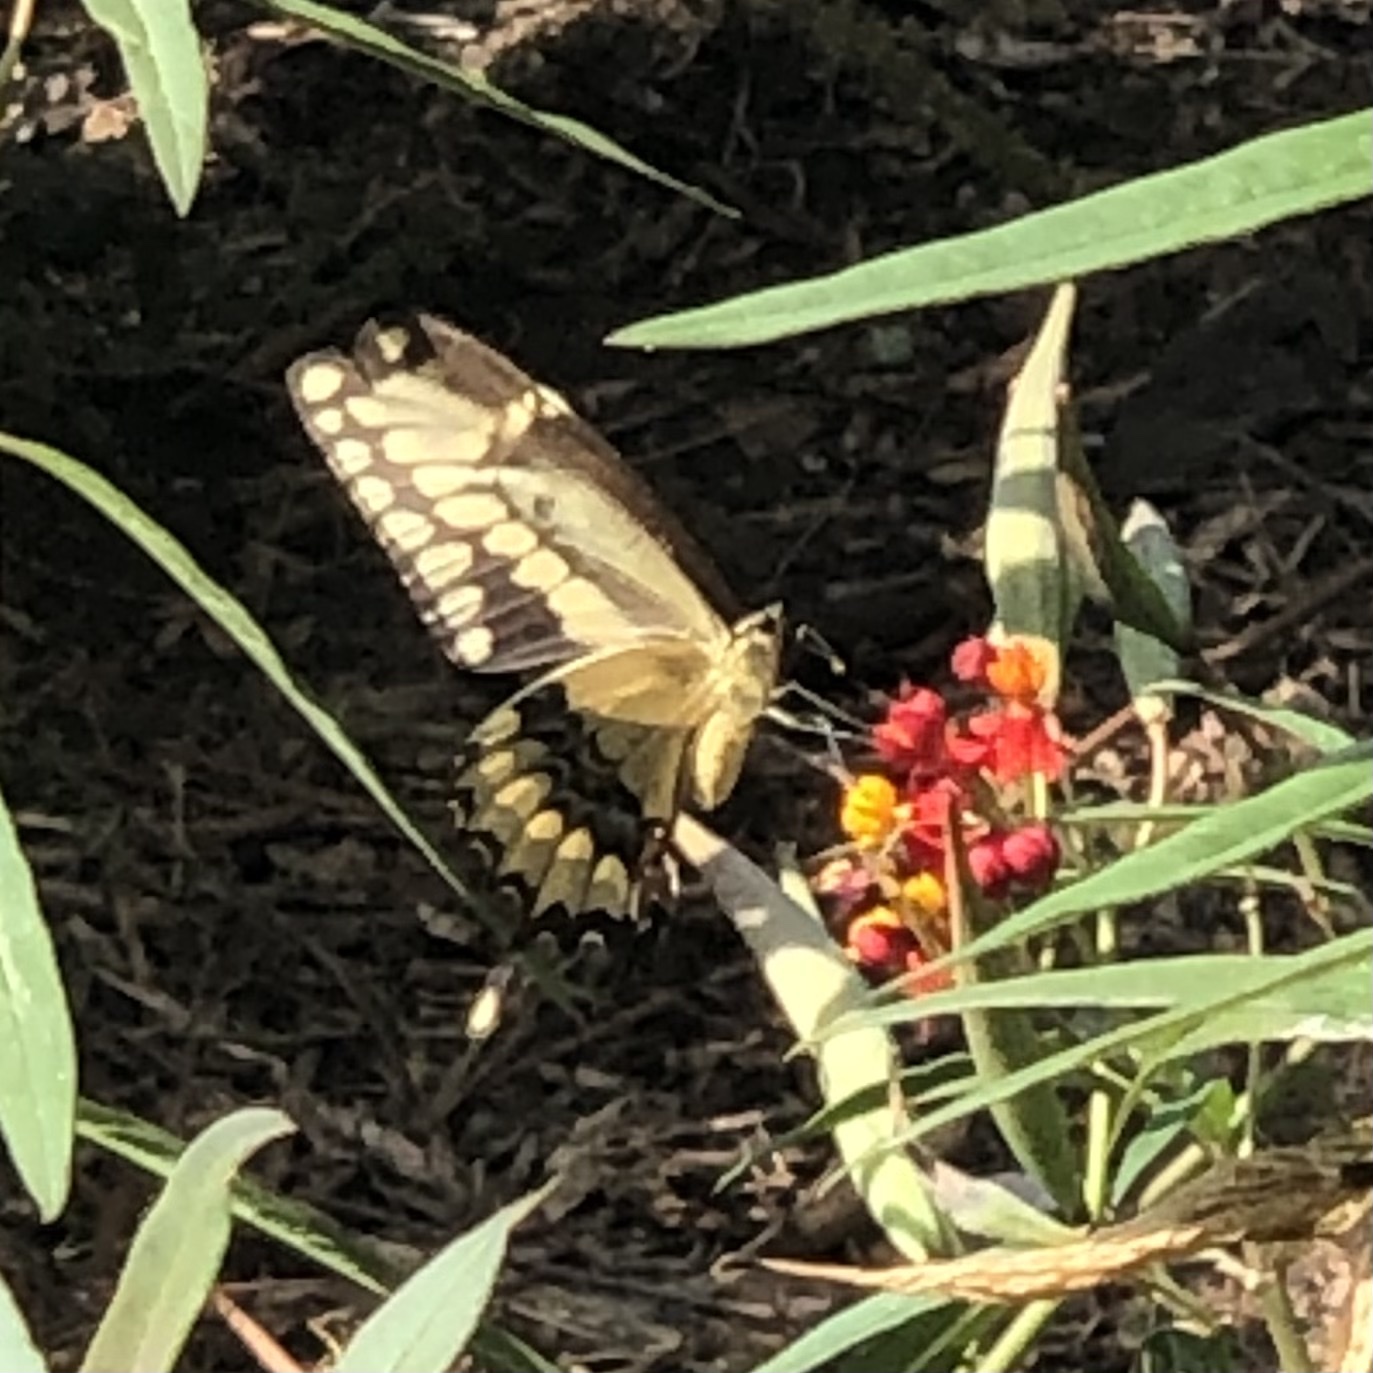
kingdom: Animalia
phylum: Arthropoda
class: Insecta
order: Lepidoptera
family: Papilionidae
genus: Papilio
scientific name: Papilio rumiko
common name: Western giant swallowtail
